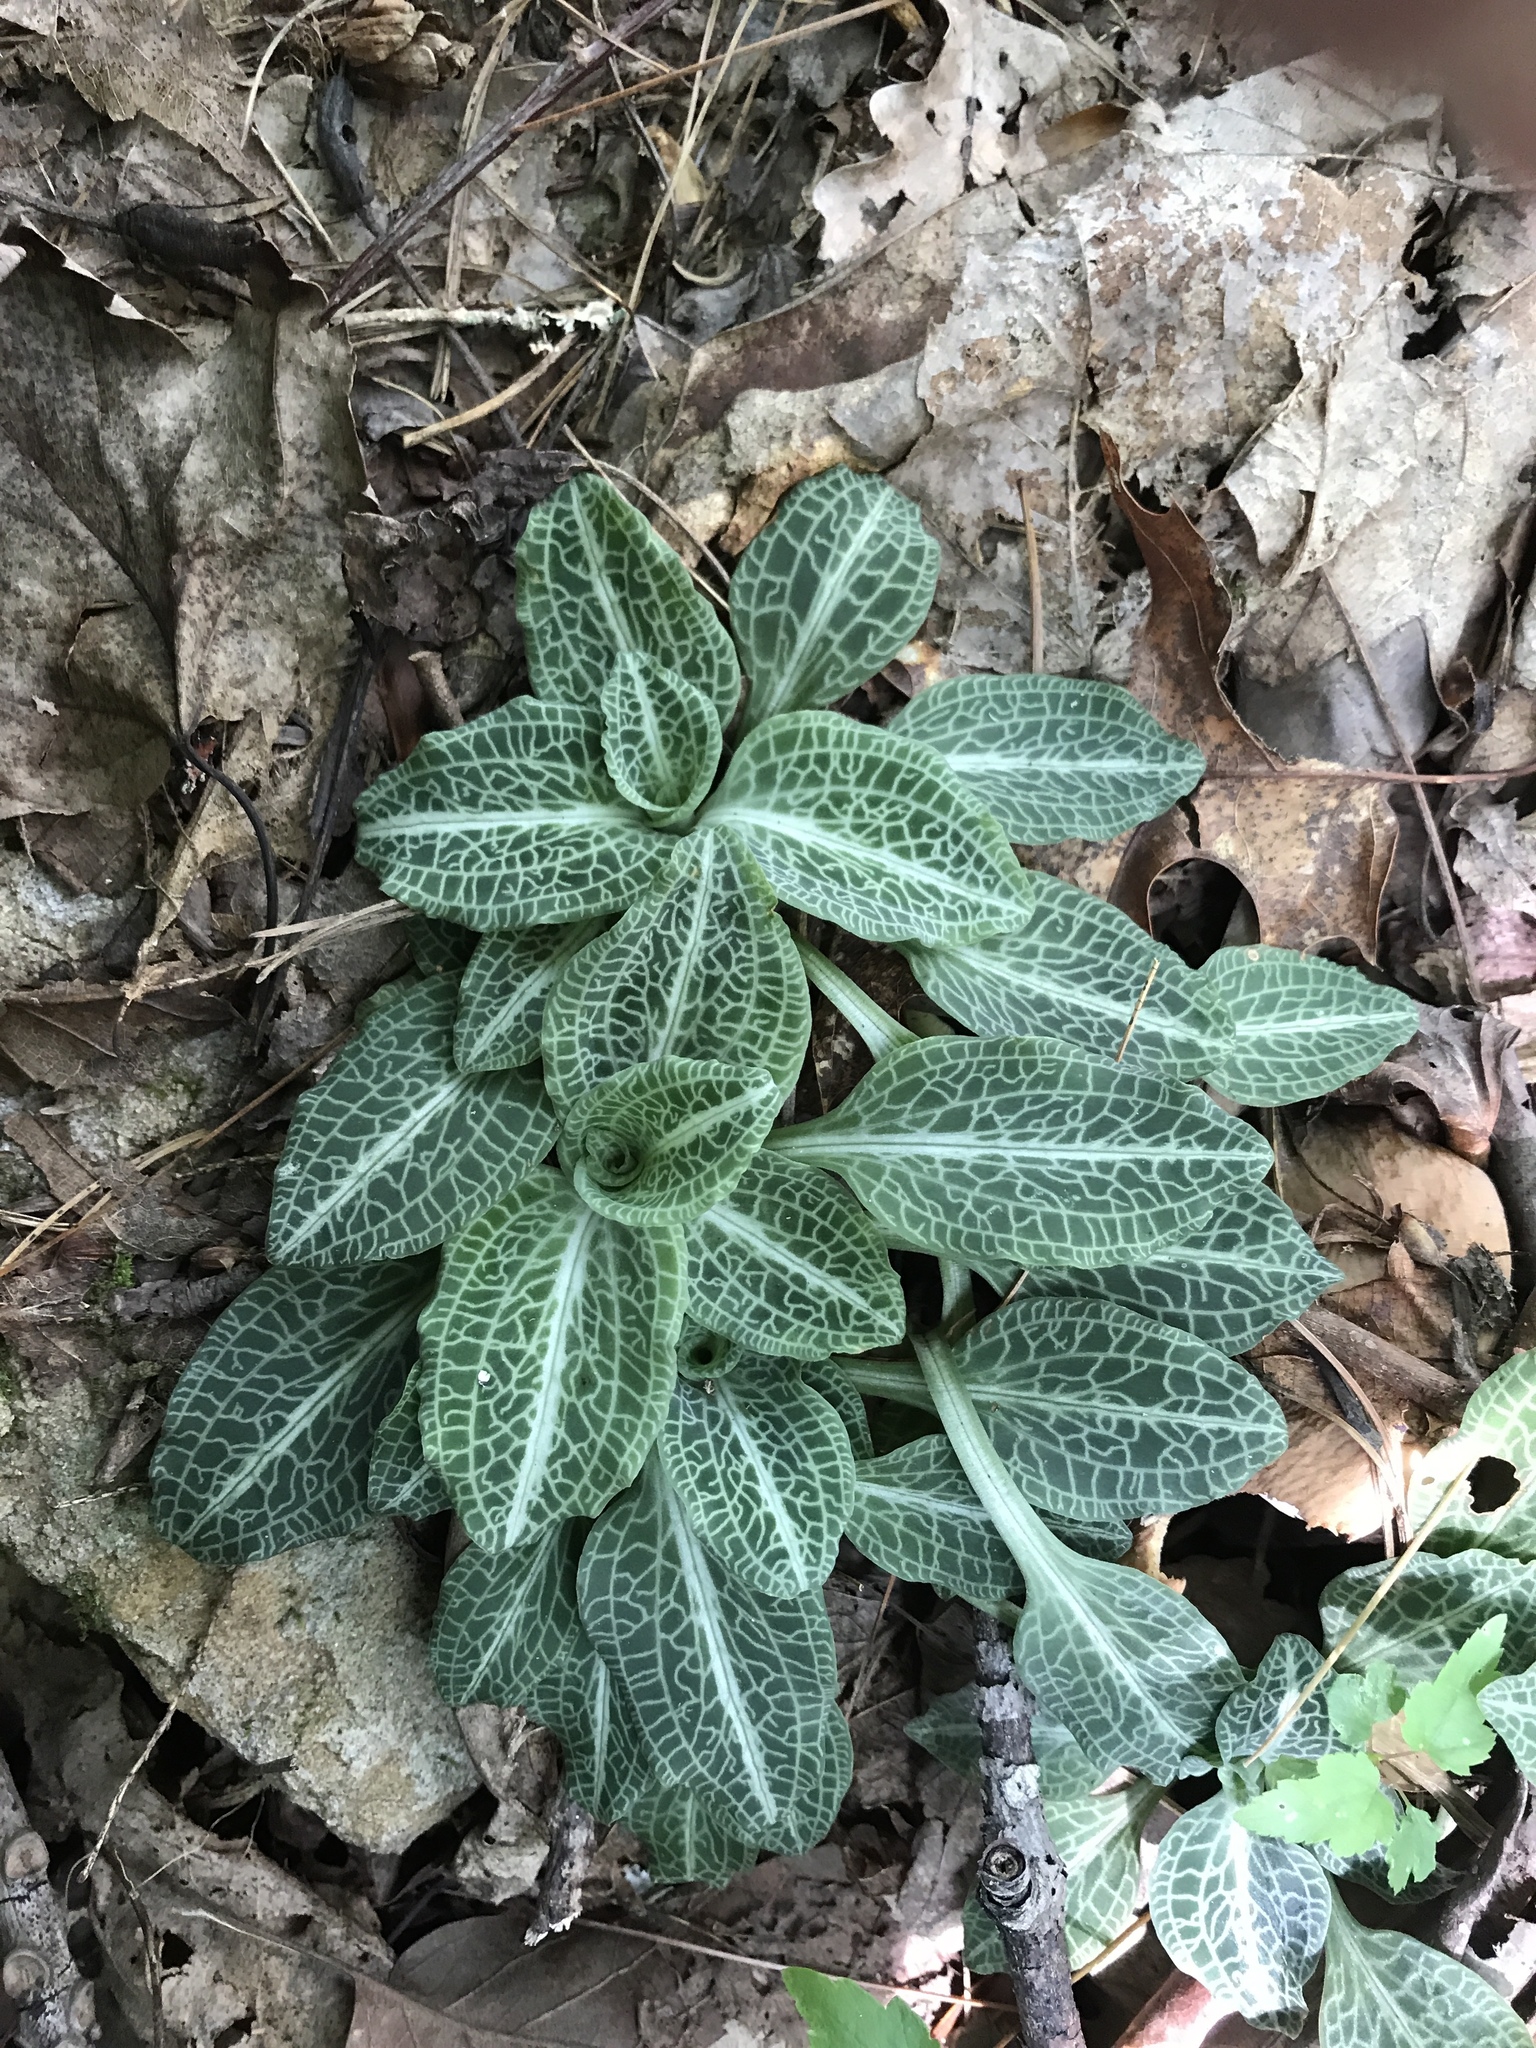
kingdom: Plantae
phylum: Tracheophyta
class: Liliopsida
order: Asparagales
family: Orchidaceae
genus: Goodyera
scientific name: Goodyera pubescens
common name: Downy rattlesnake-plantain
